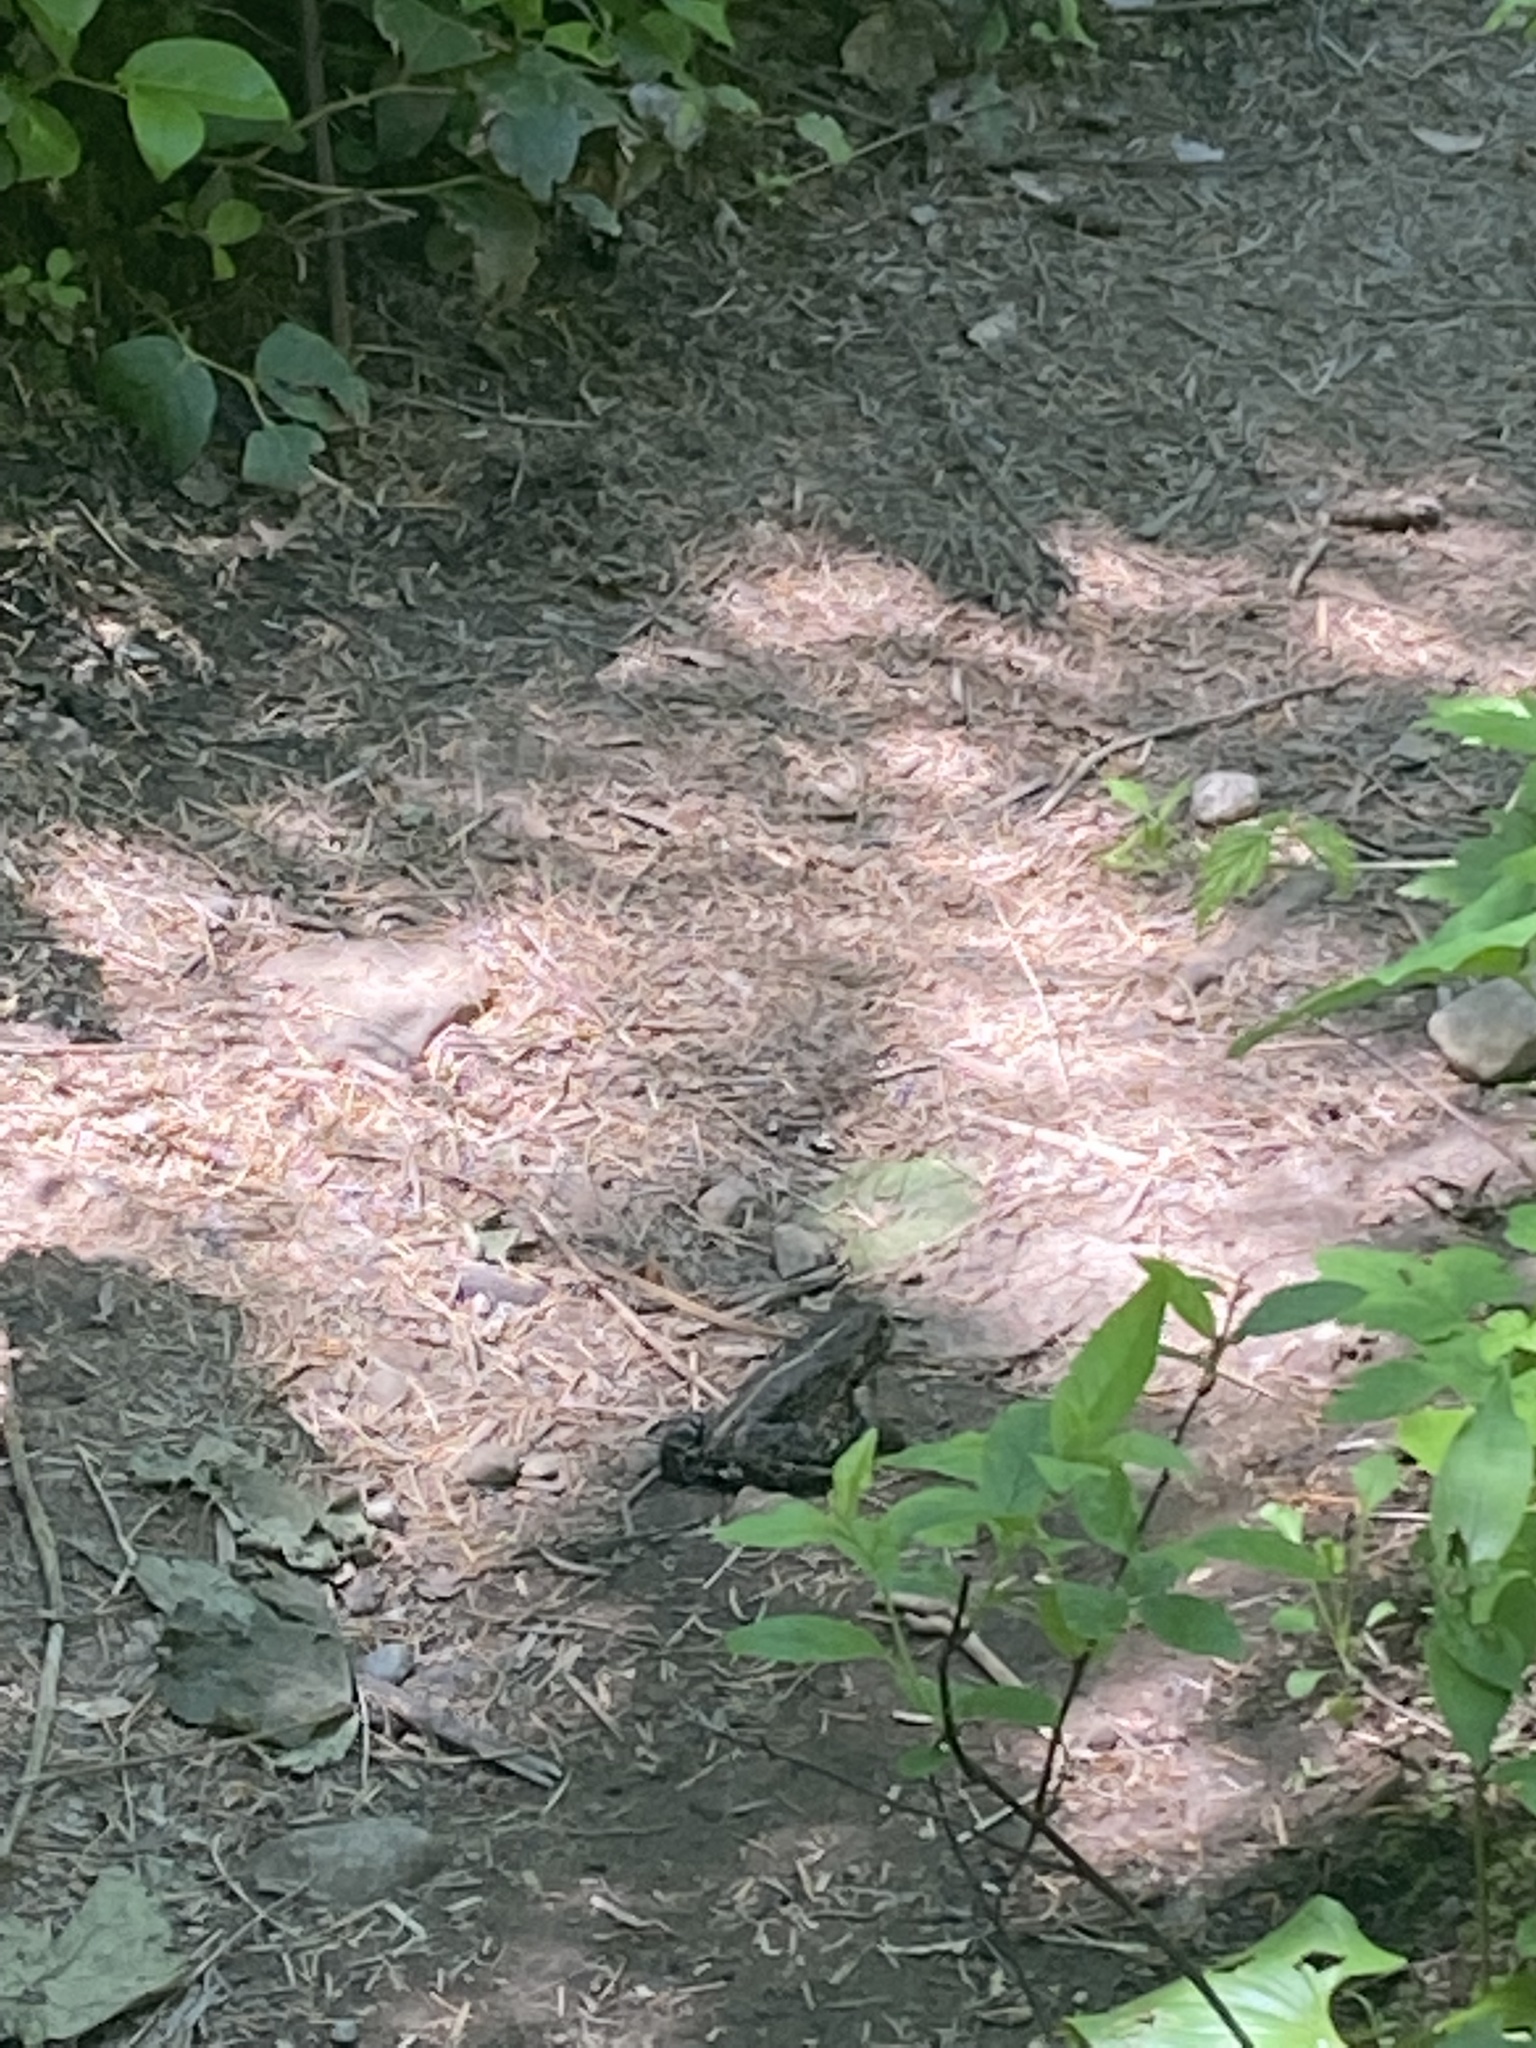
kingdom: Animalia
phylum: Chordata
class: Amphibia
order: Anura
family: Bufonidae
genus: Anaxyrus
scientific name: Anaxyrus boreas
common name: Western toad
